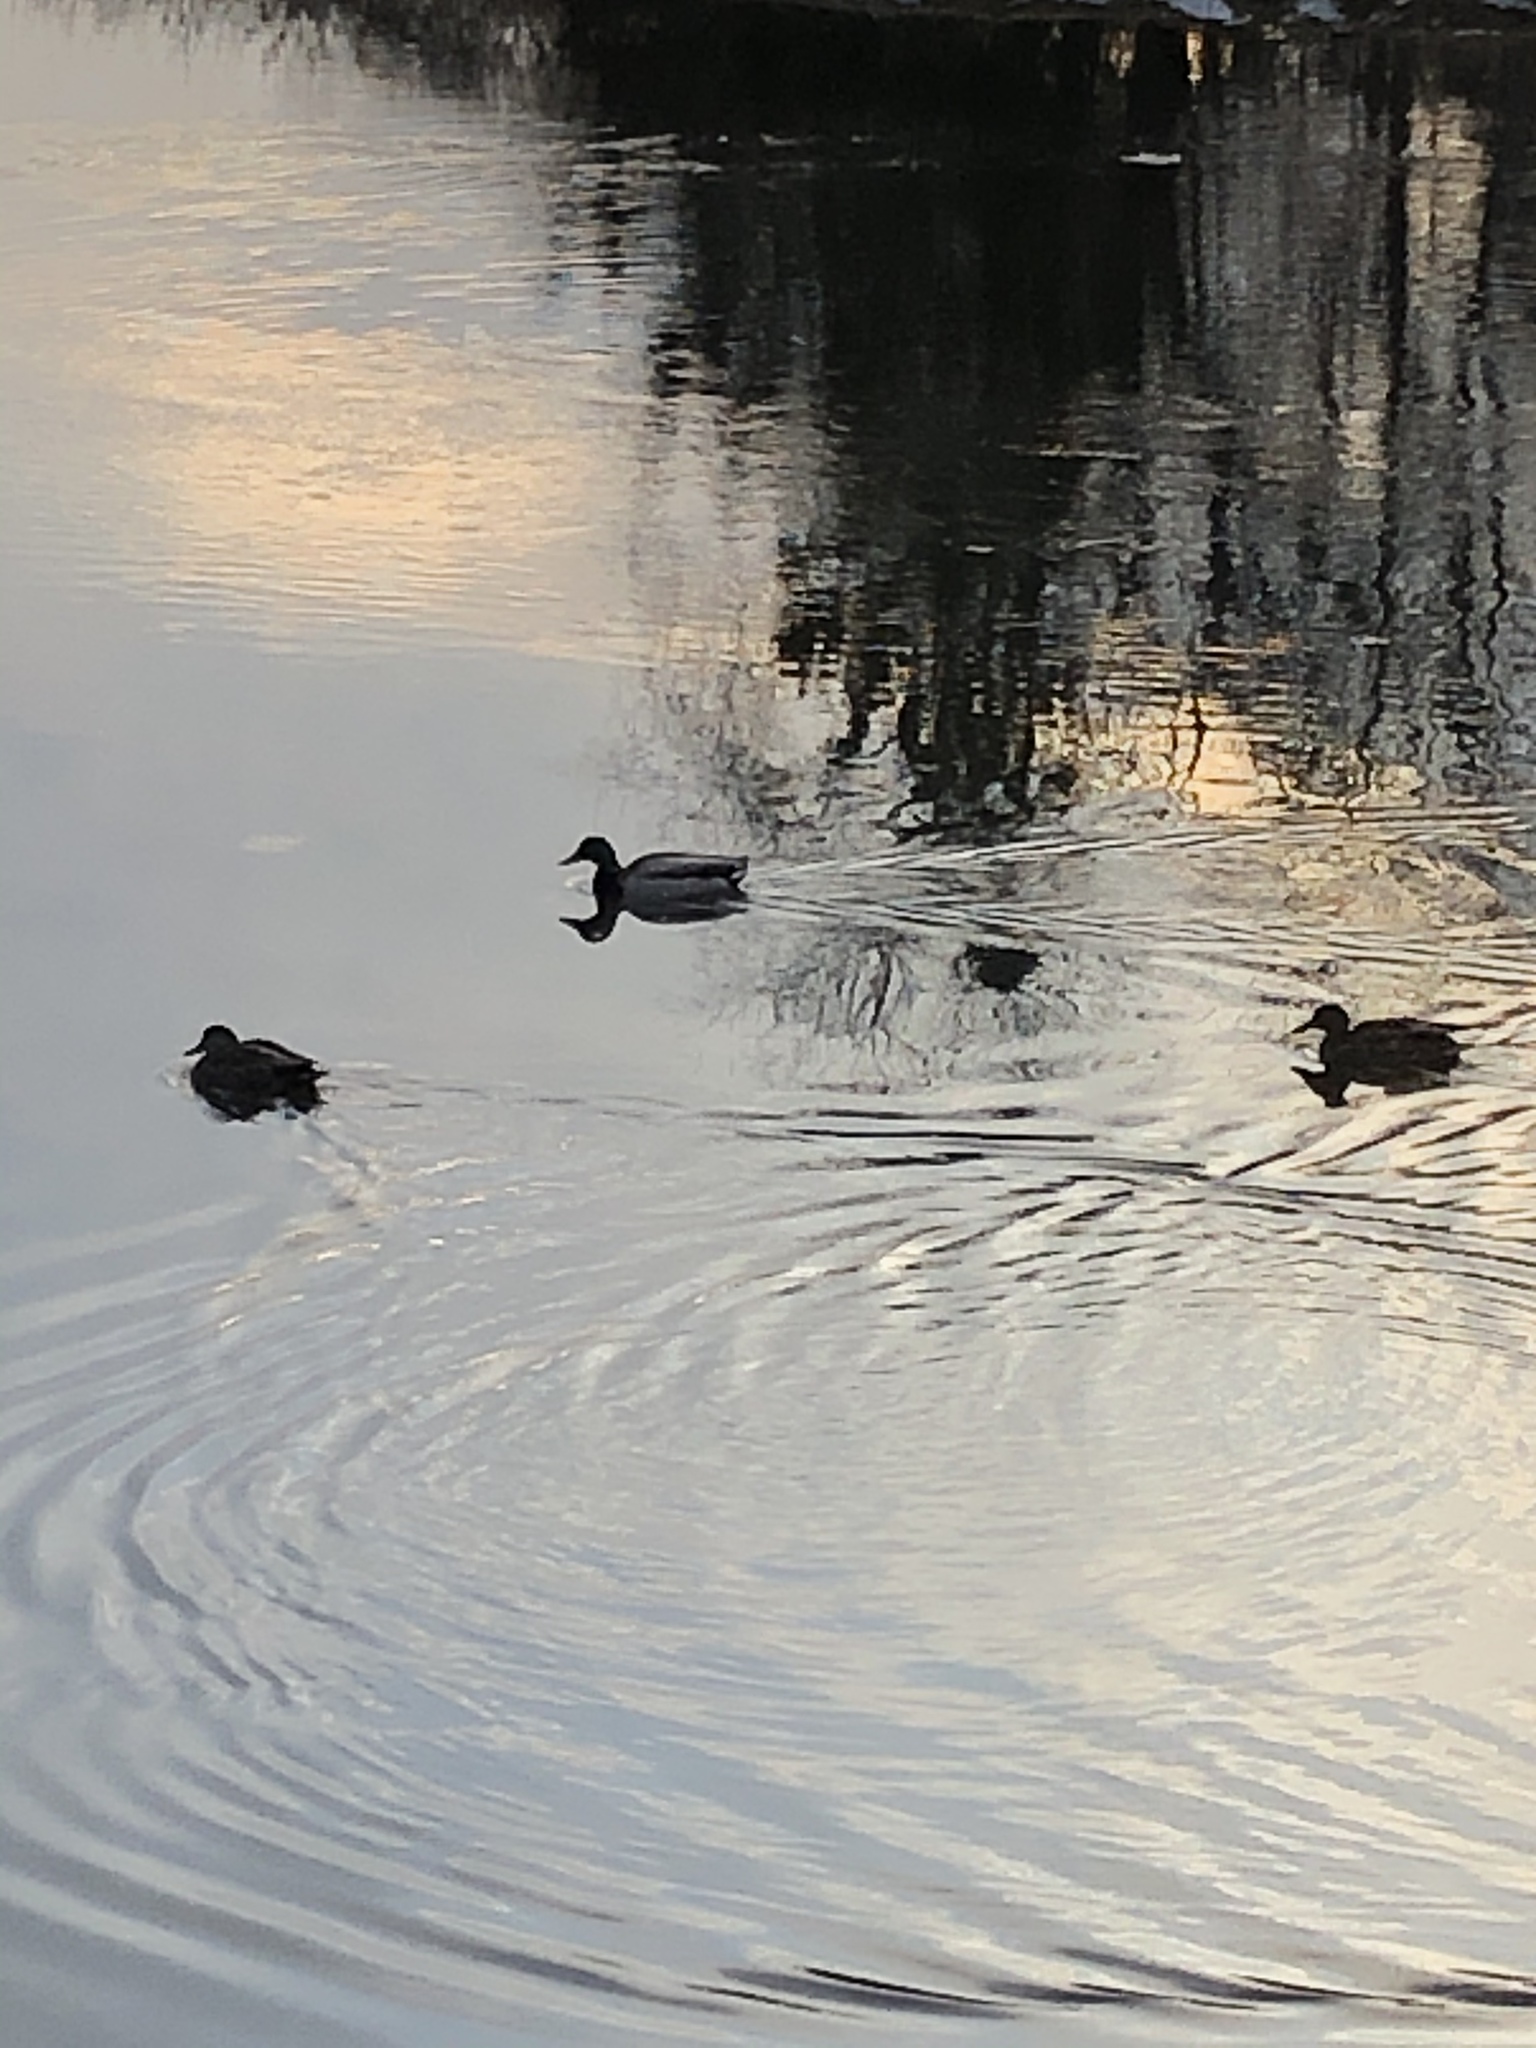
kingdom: Animalia
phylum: Chordata
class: Aves
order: Anseriformes
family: Anatidae
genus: Anas
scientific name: Anas platyrhynchos
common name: Mallard
